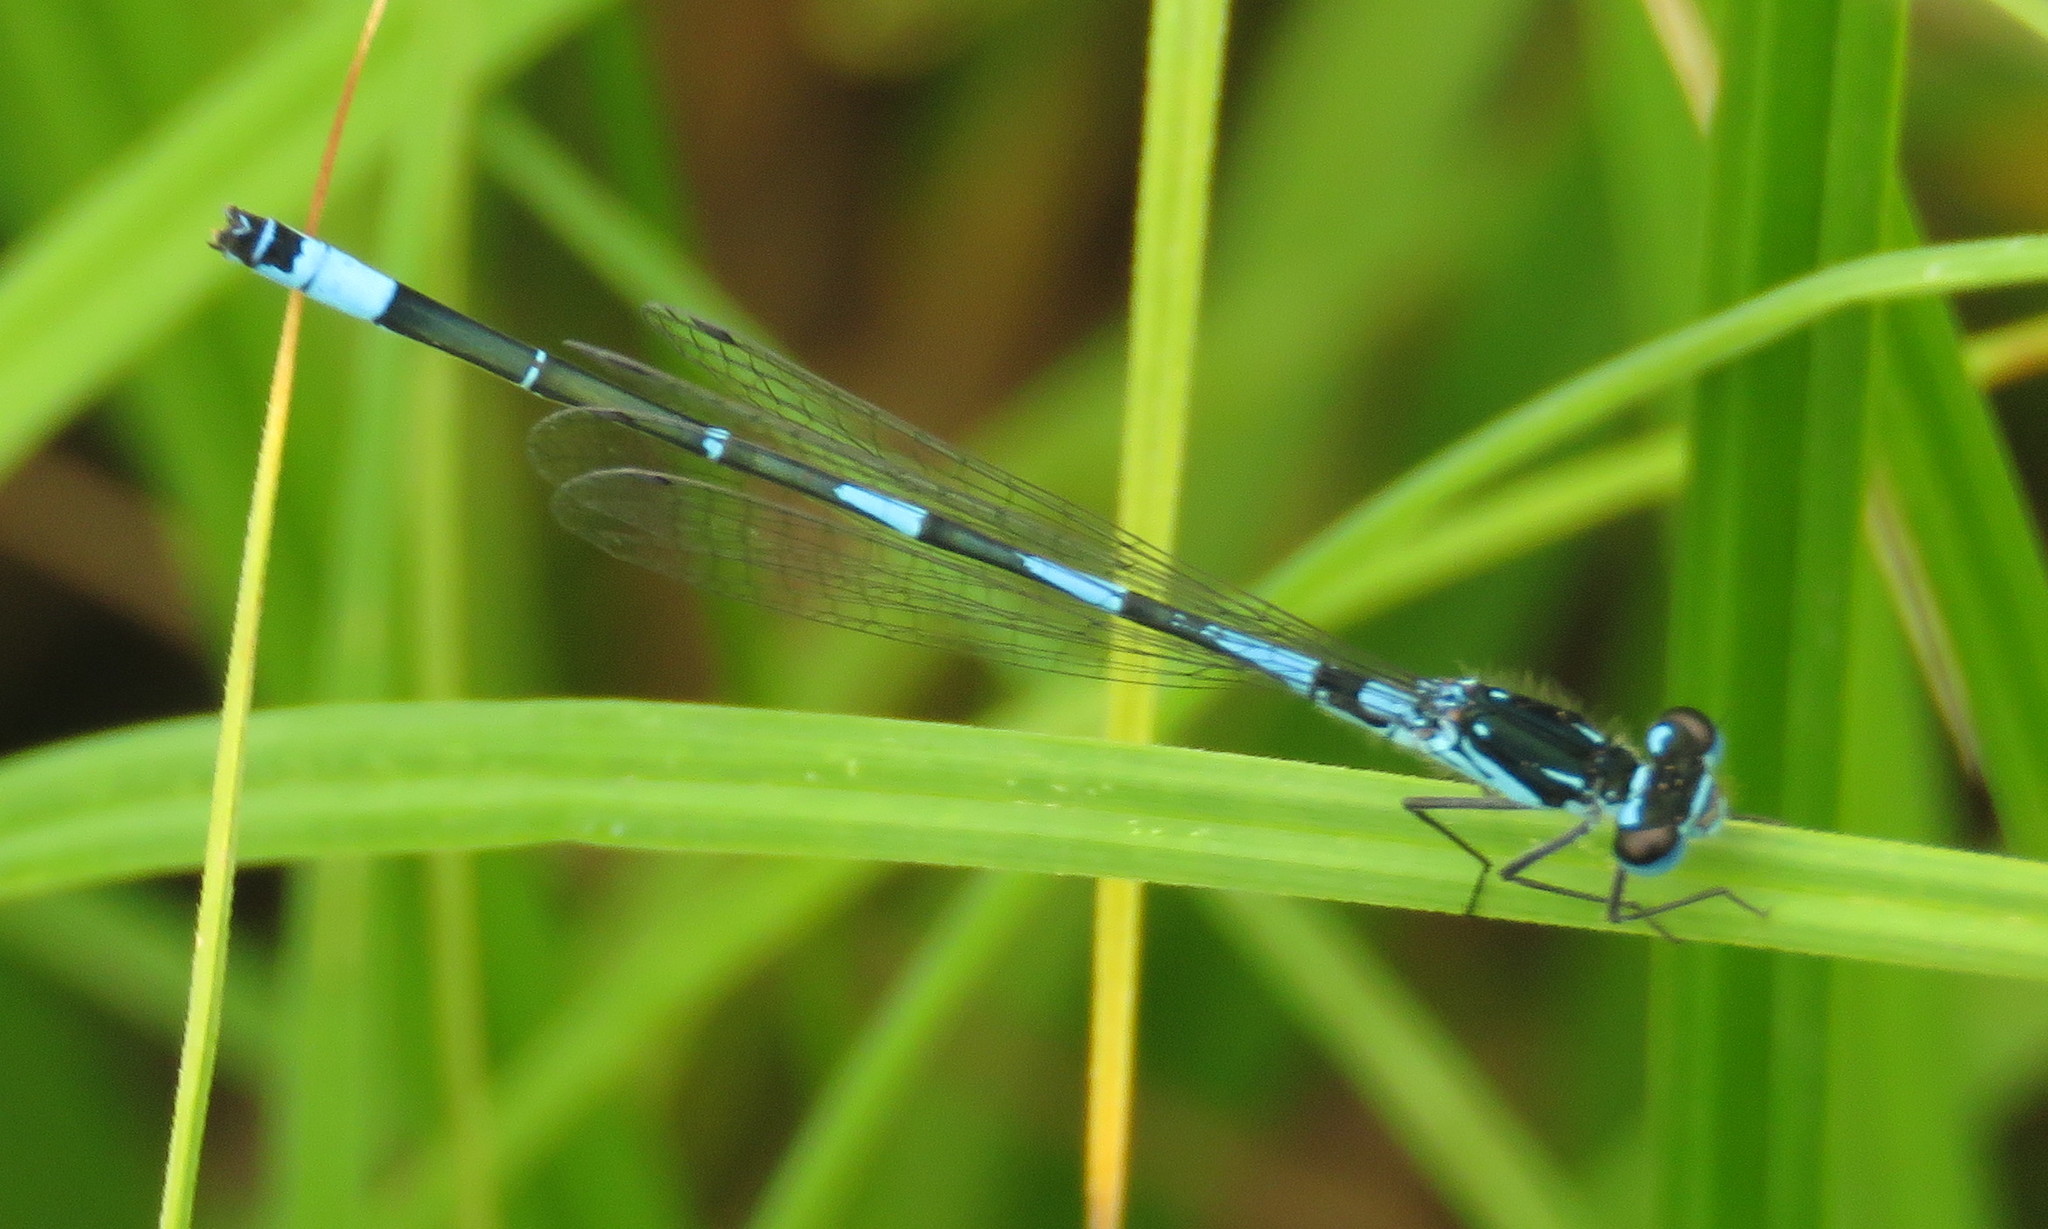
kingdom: Animalia
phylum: Arthropoda
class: Insecta
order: Odonata
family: Coenagrionidae
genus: Coenagrion
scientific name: Coenagrion pulchellum
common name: Variable bluet
